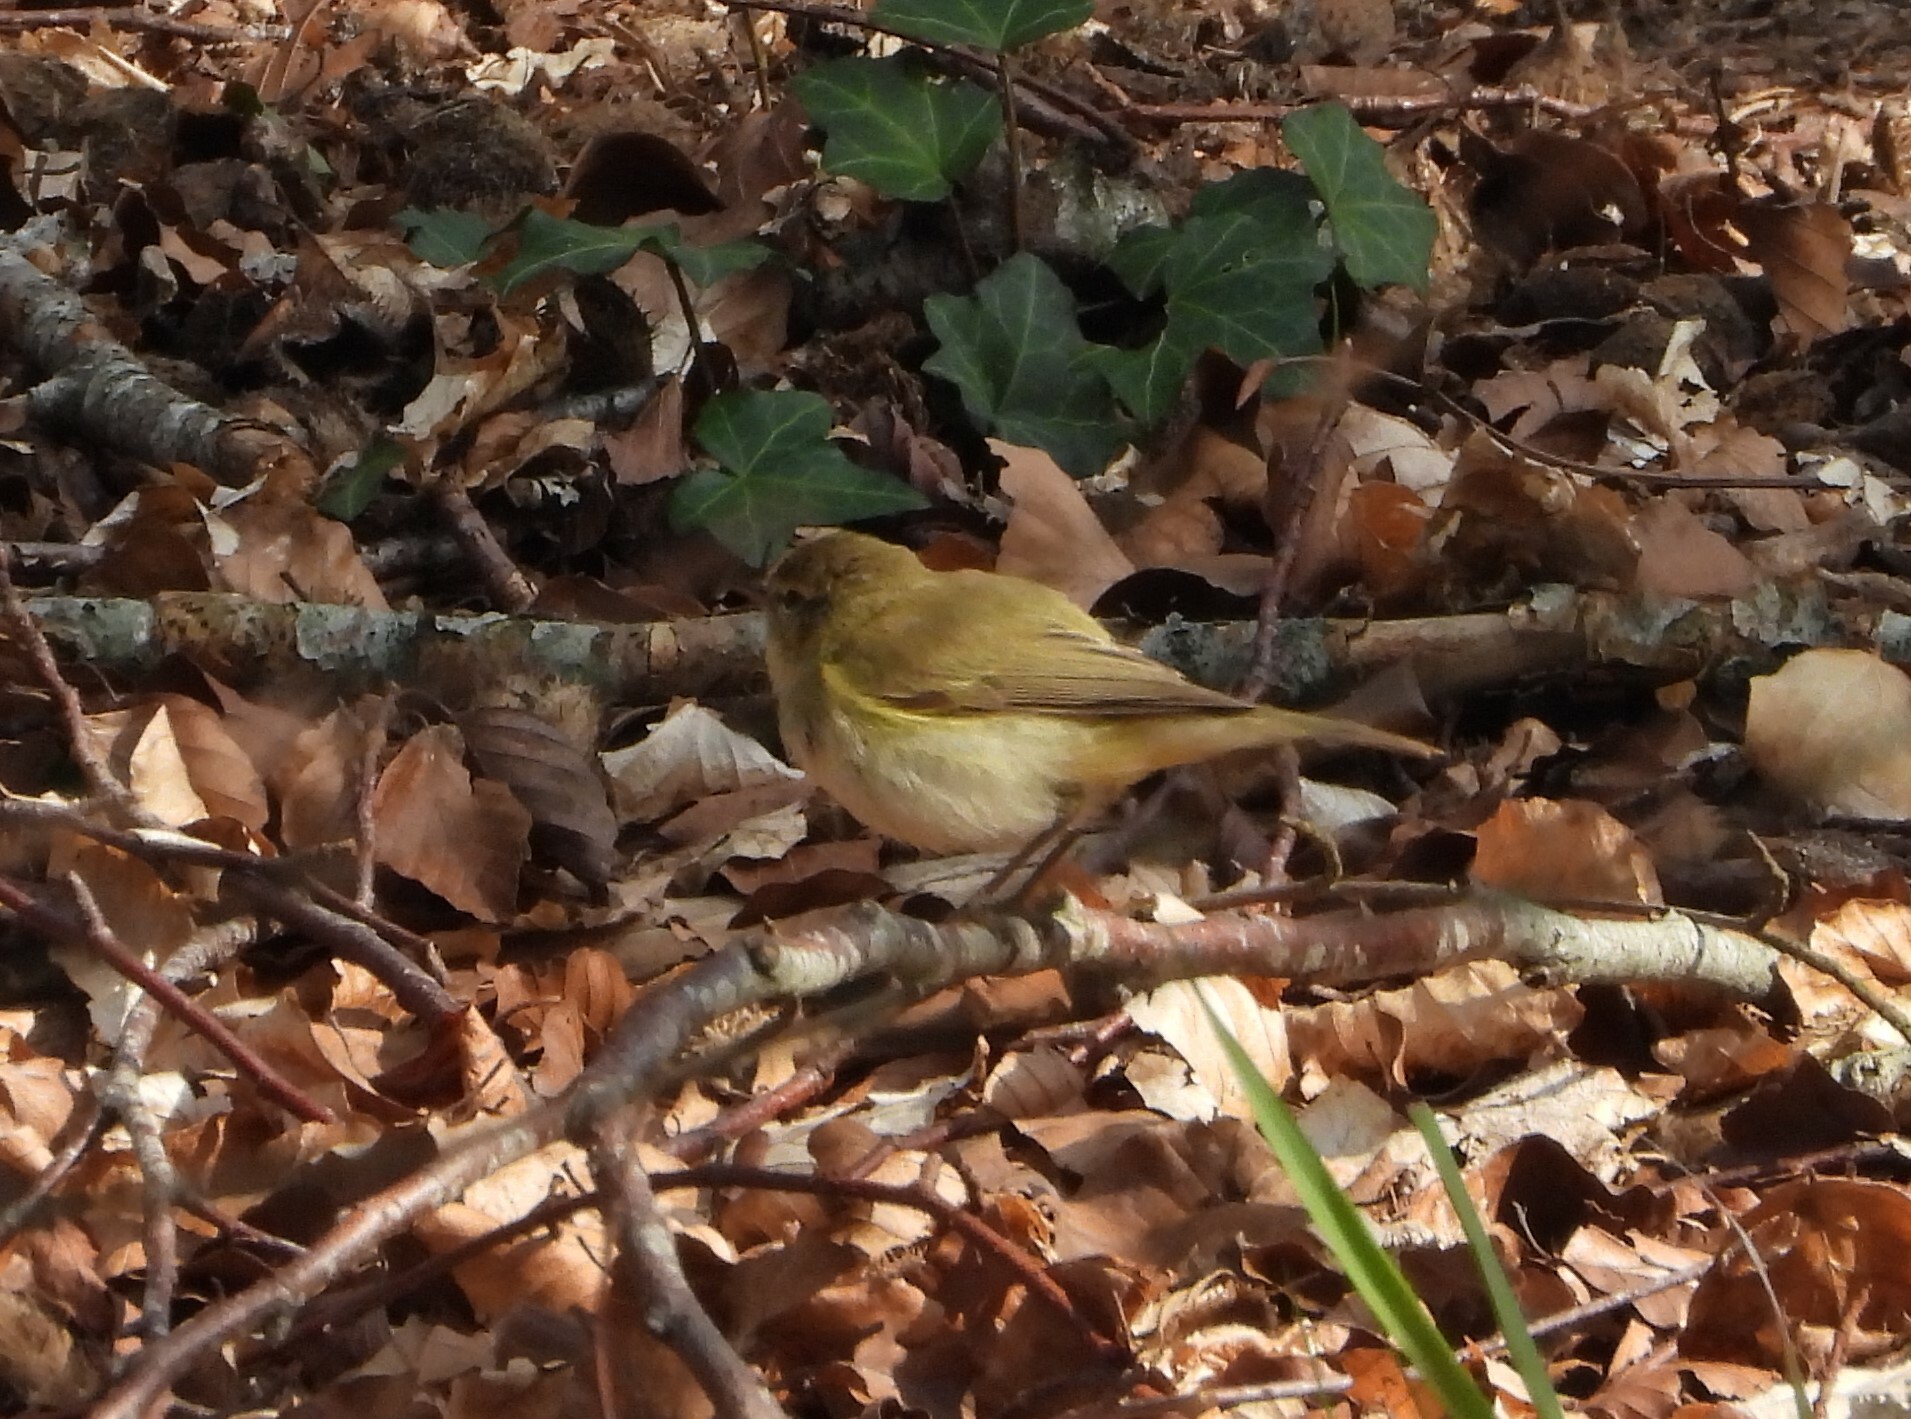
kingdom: Animalia
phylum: Chordata
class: Aves
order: Passeriformes
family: Phylloscopidae
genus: Phylloscopus
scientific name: Phylloscopus collybita
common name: Common chiffchaff
